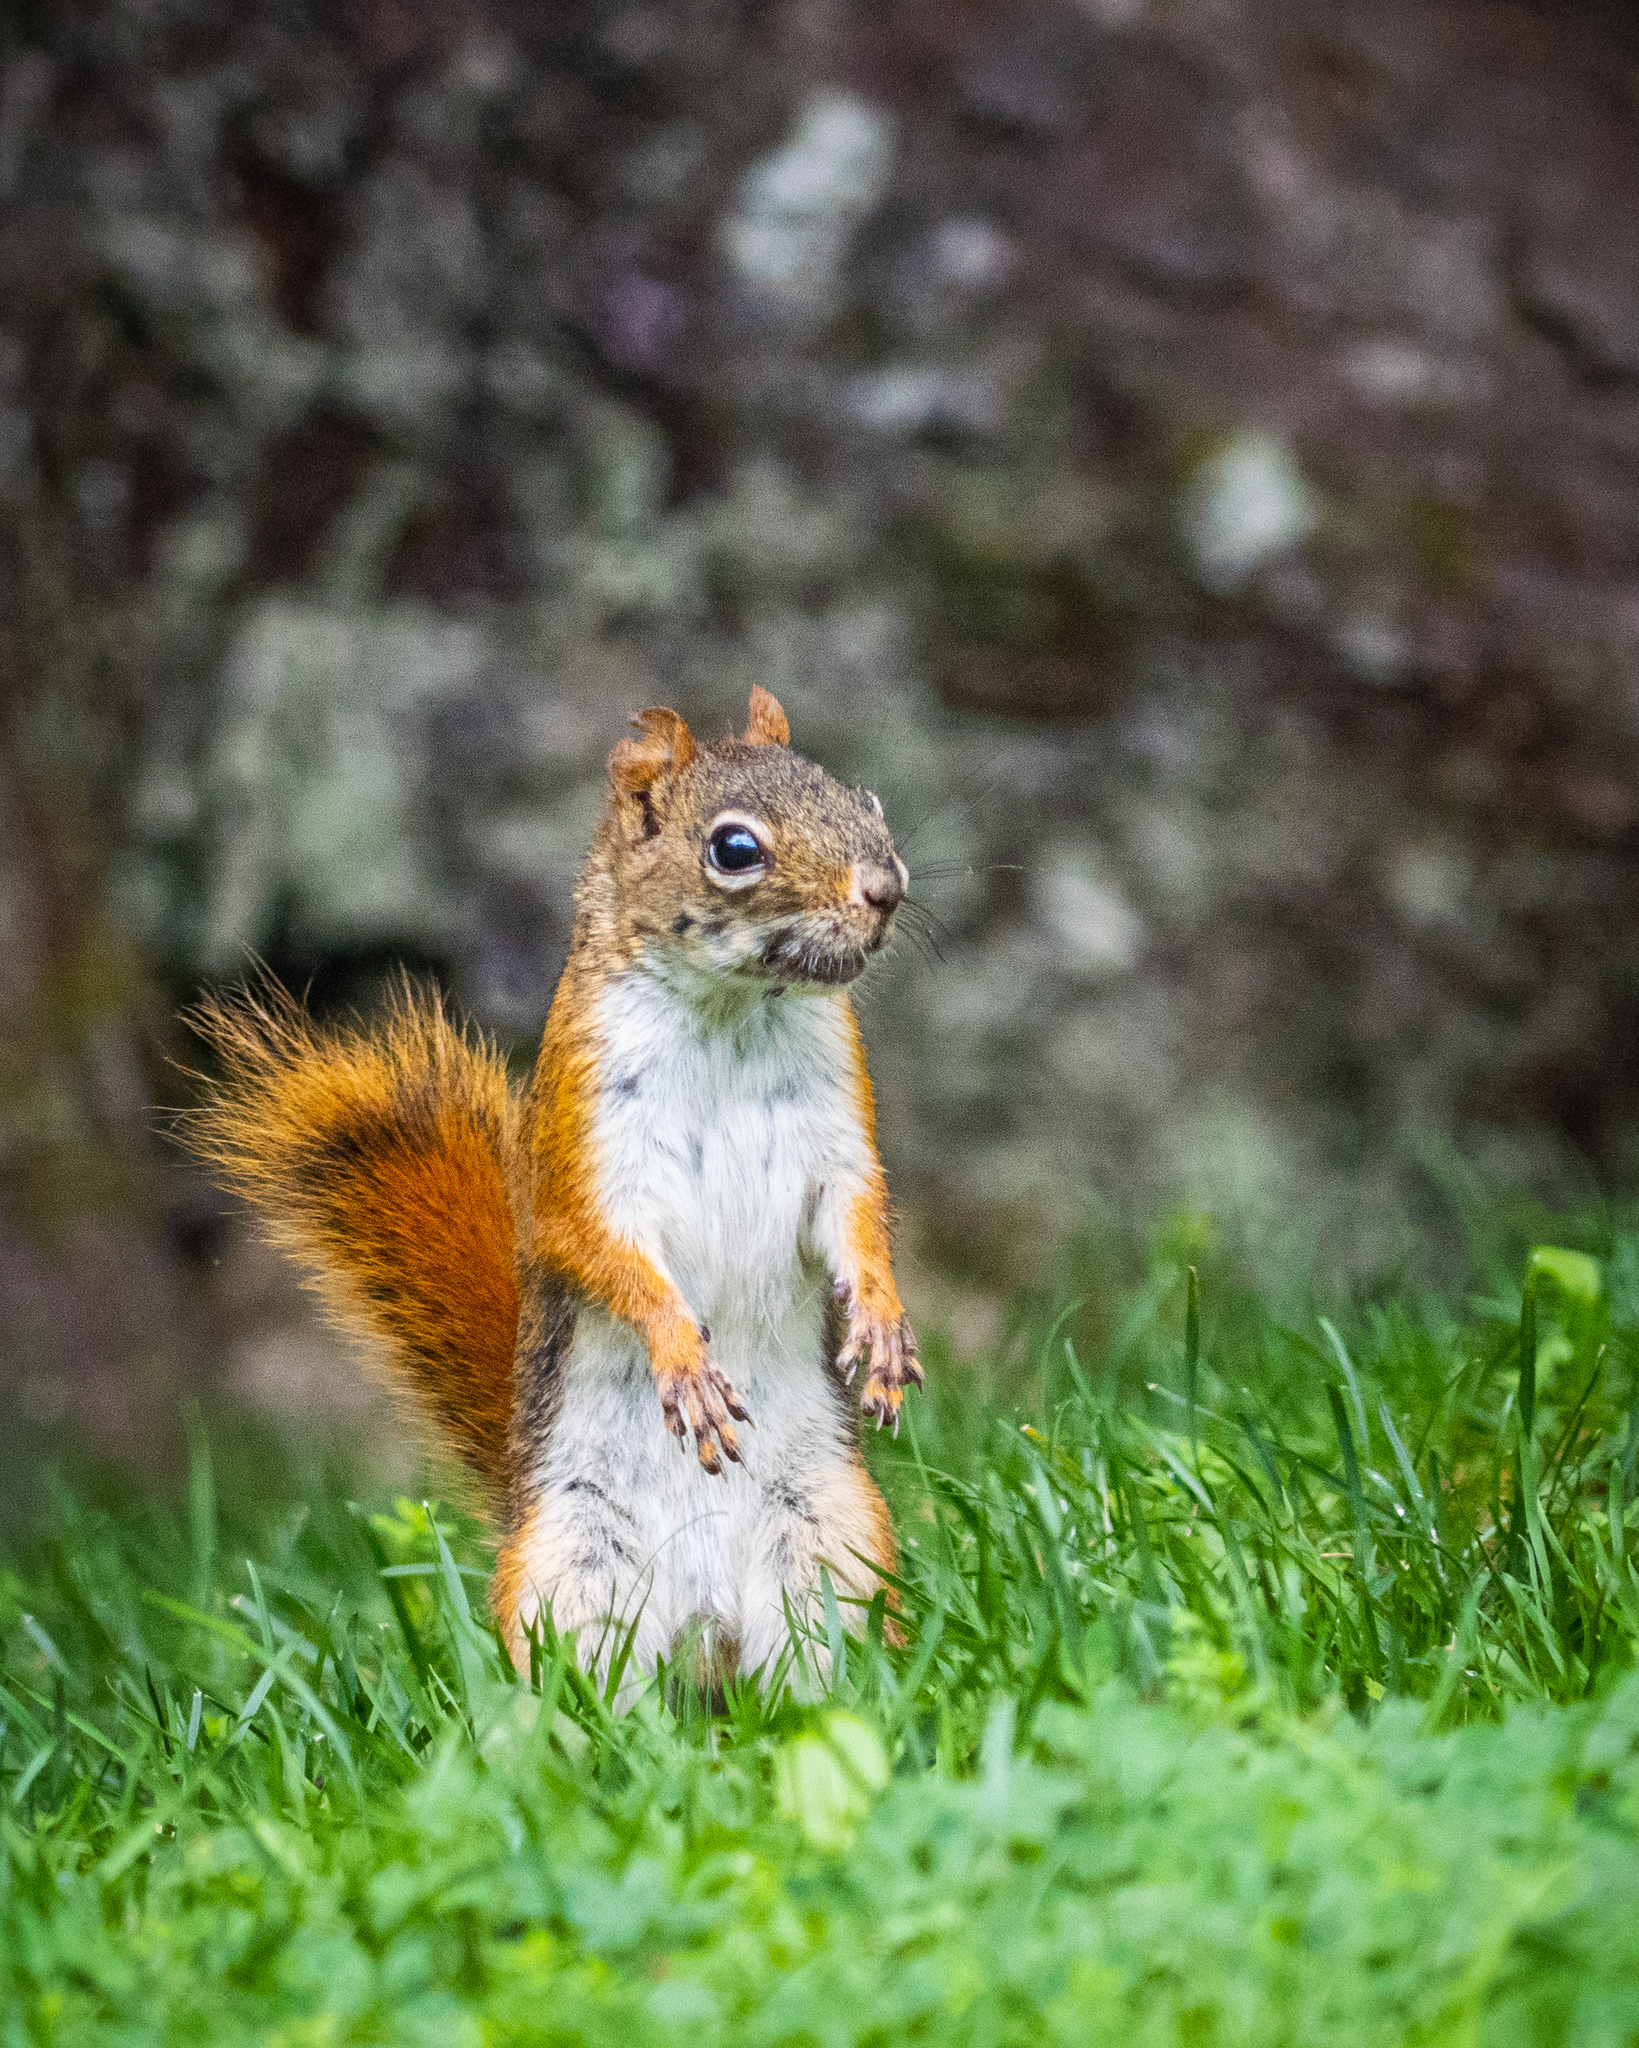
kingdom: Animalia
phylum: Chordata
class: Mammalia
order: Rodentia
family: Sciuridae
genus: Tamiasciurus
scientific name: Tamiasciurus hudsonicus
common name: Red squirrel
